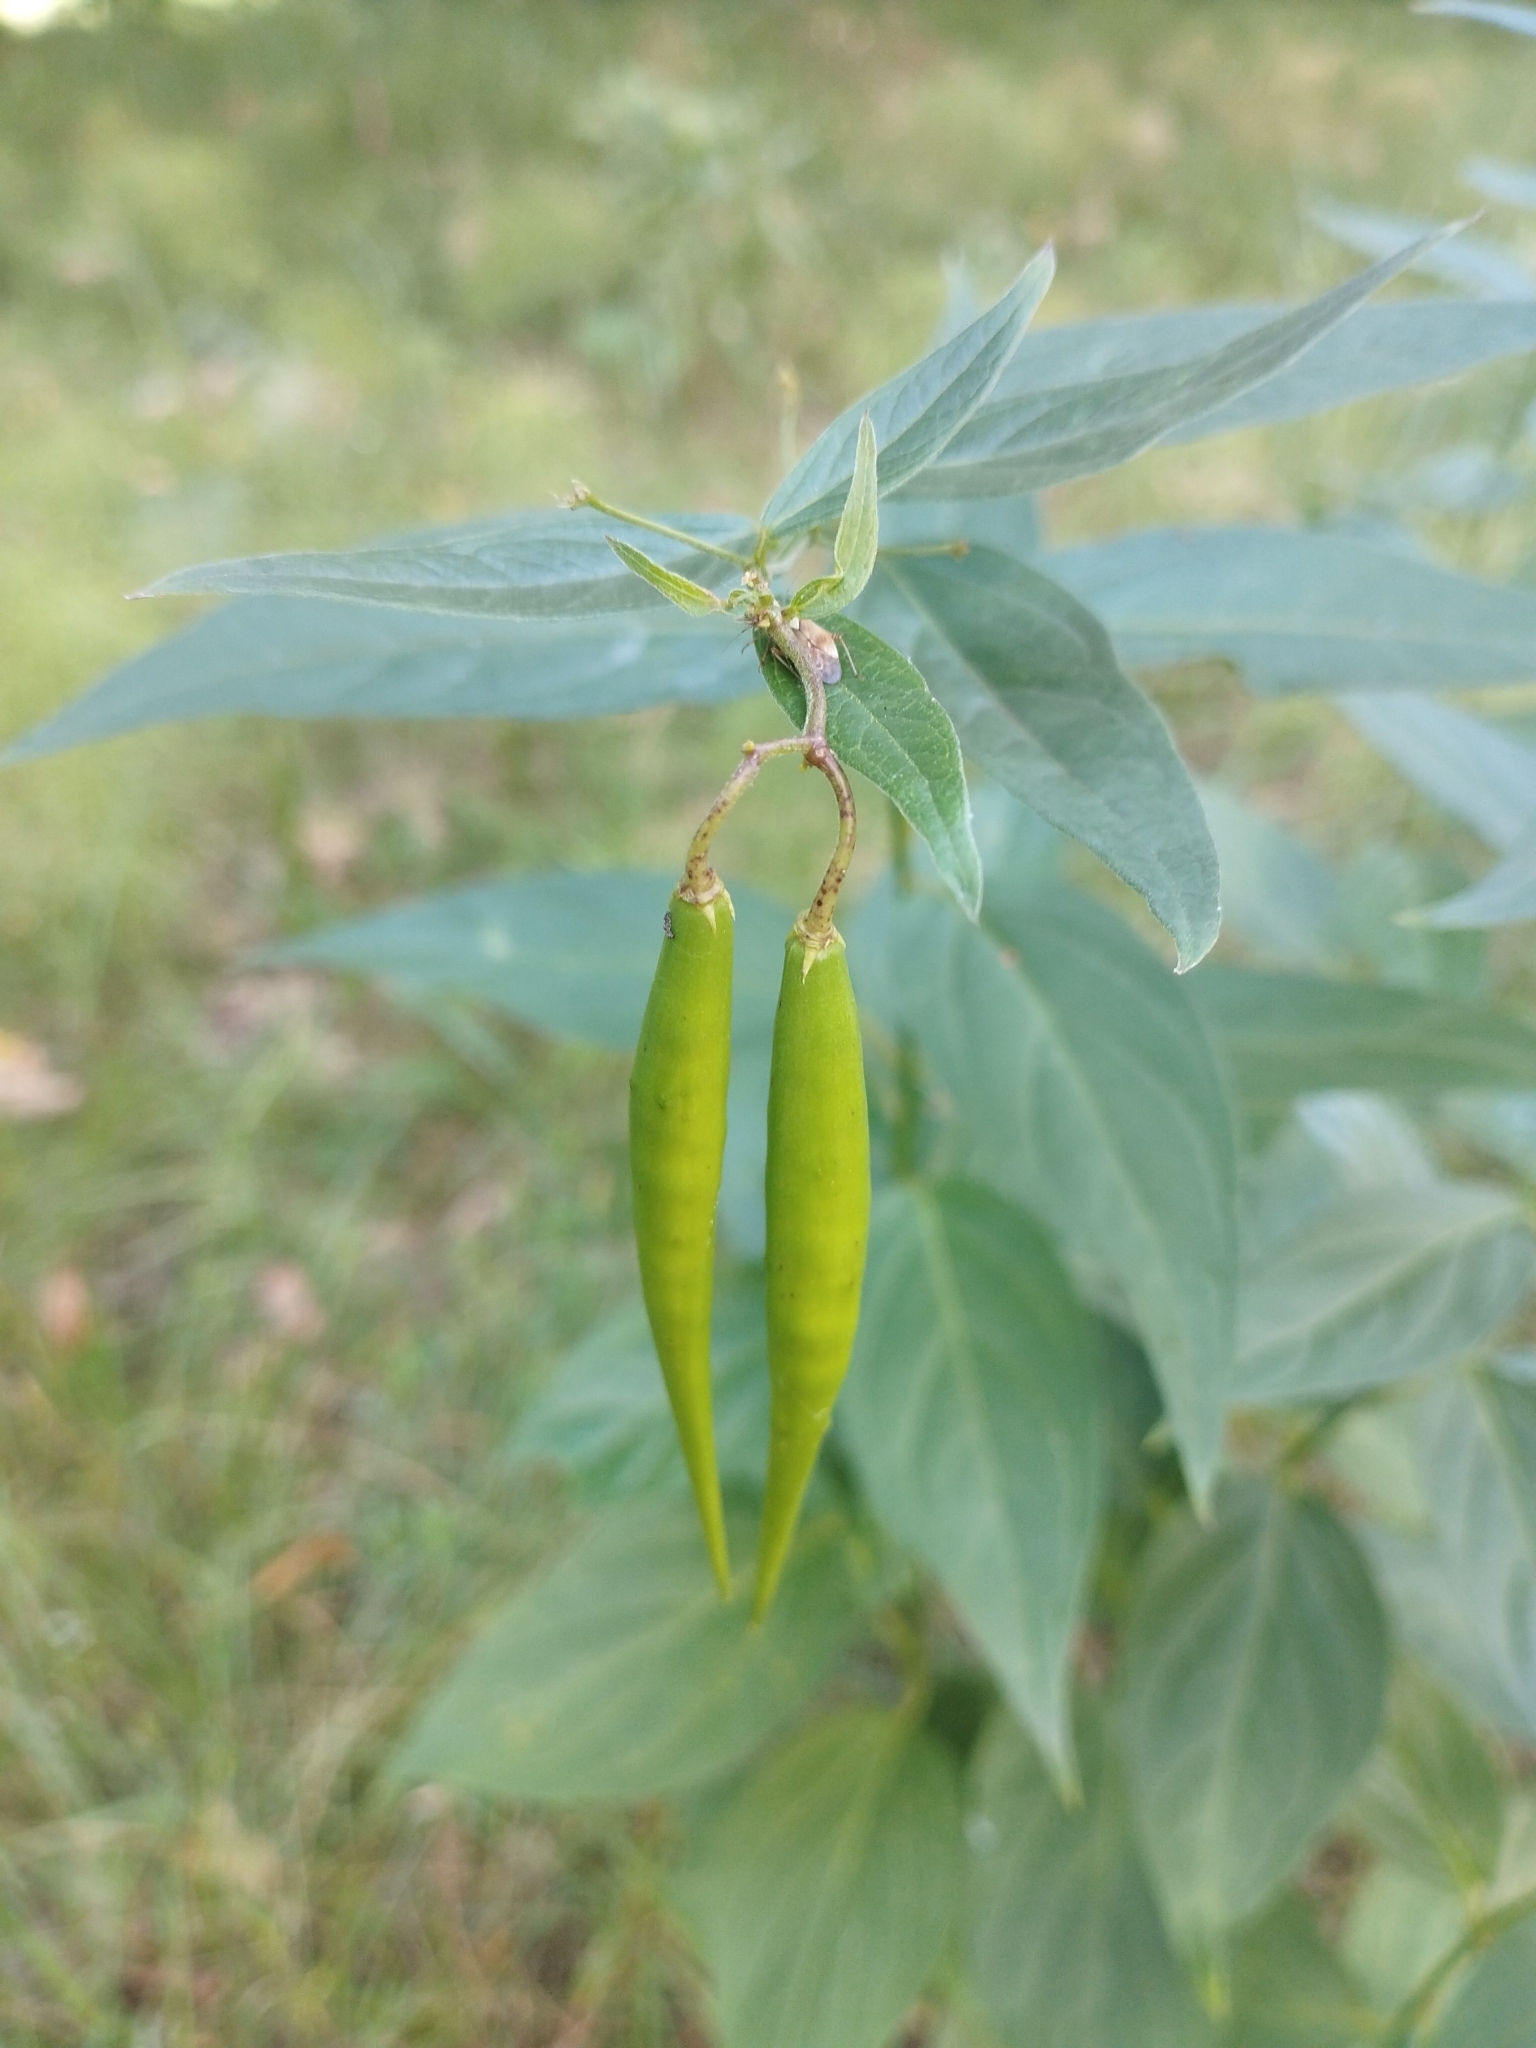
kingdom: Plantae
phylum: Tracheophyta
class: Magnoliopsida
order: Gentianales
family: Apocynaceae
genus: Vincetoxicum
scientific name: Vincetoxicum hirundinaria
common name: White swallowwort
